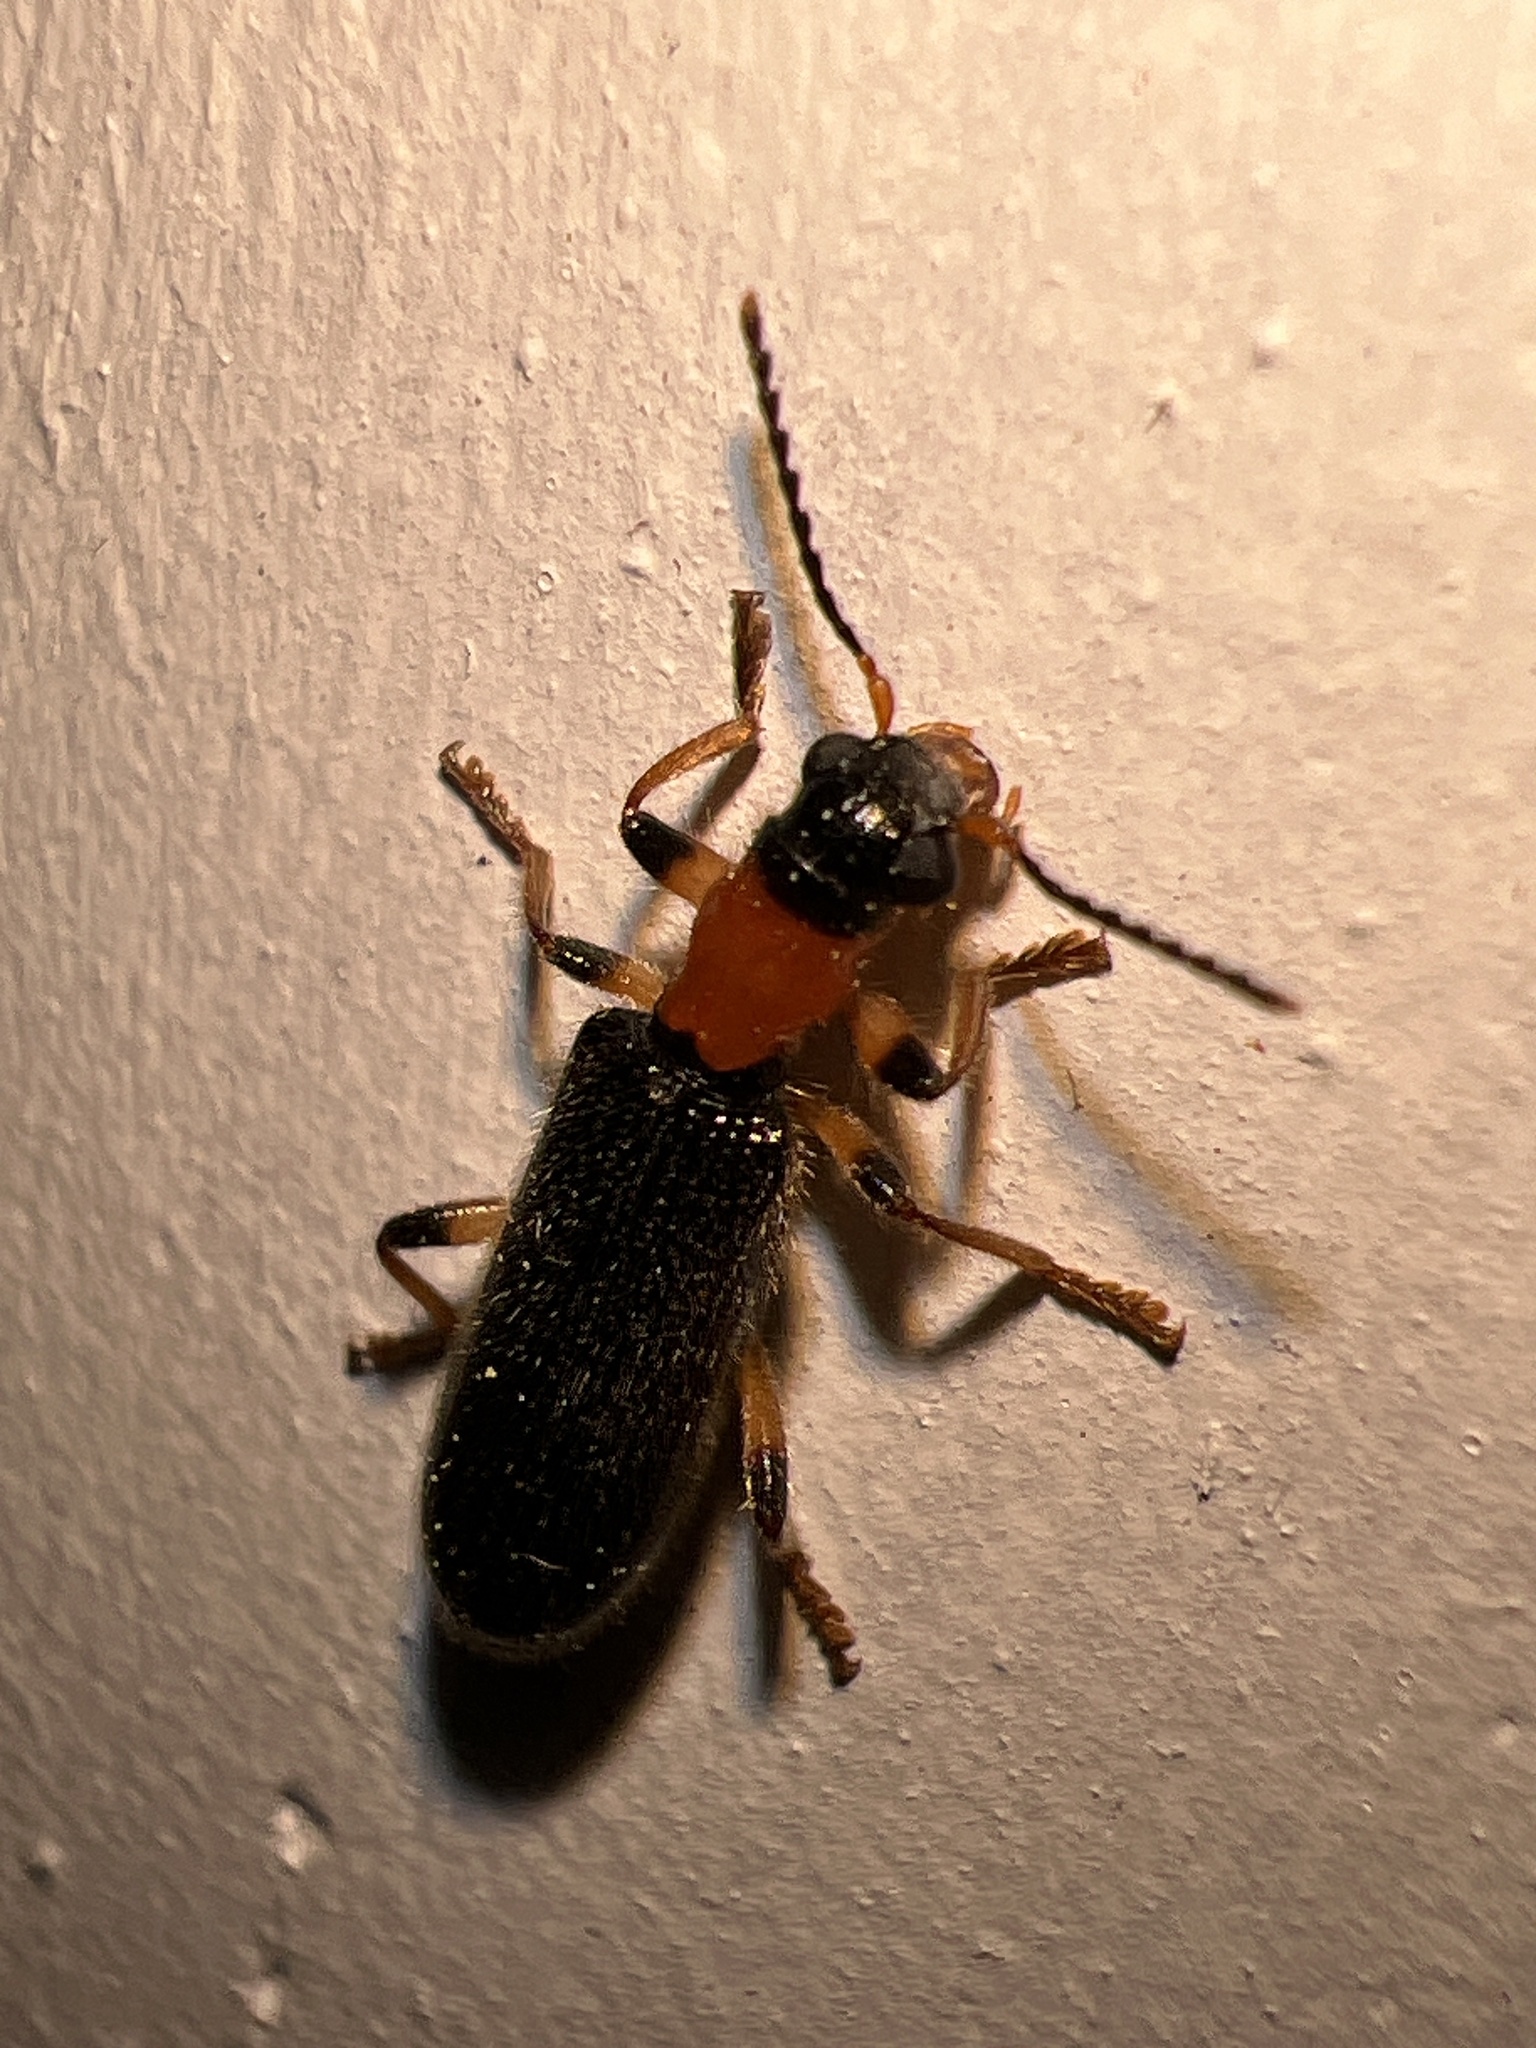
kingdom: Animalia
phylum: Arthropoda
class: Insecta
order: Coleoptera
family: Cleridae
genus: Cymatodera
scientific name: Cymatodera bicolor
